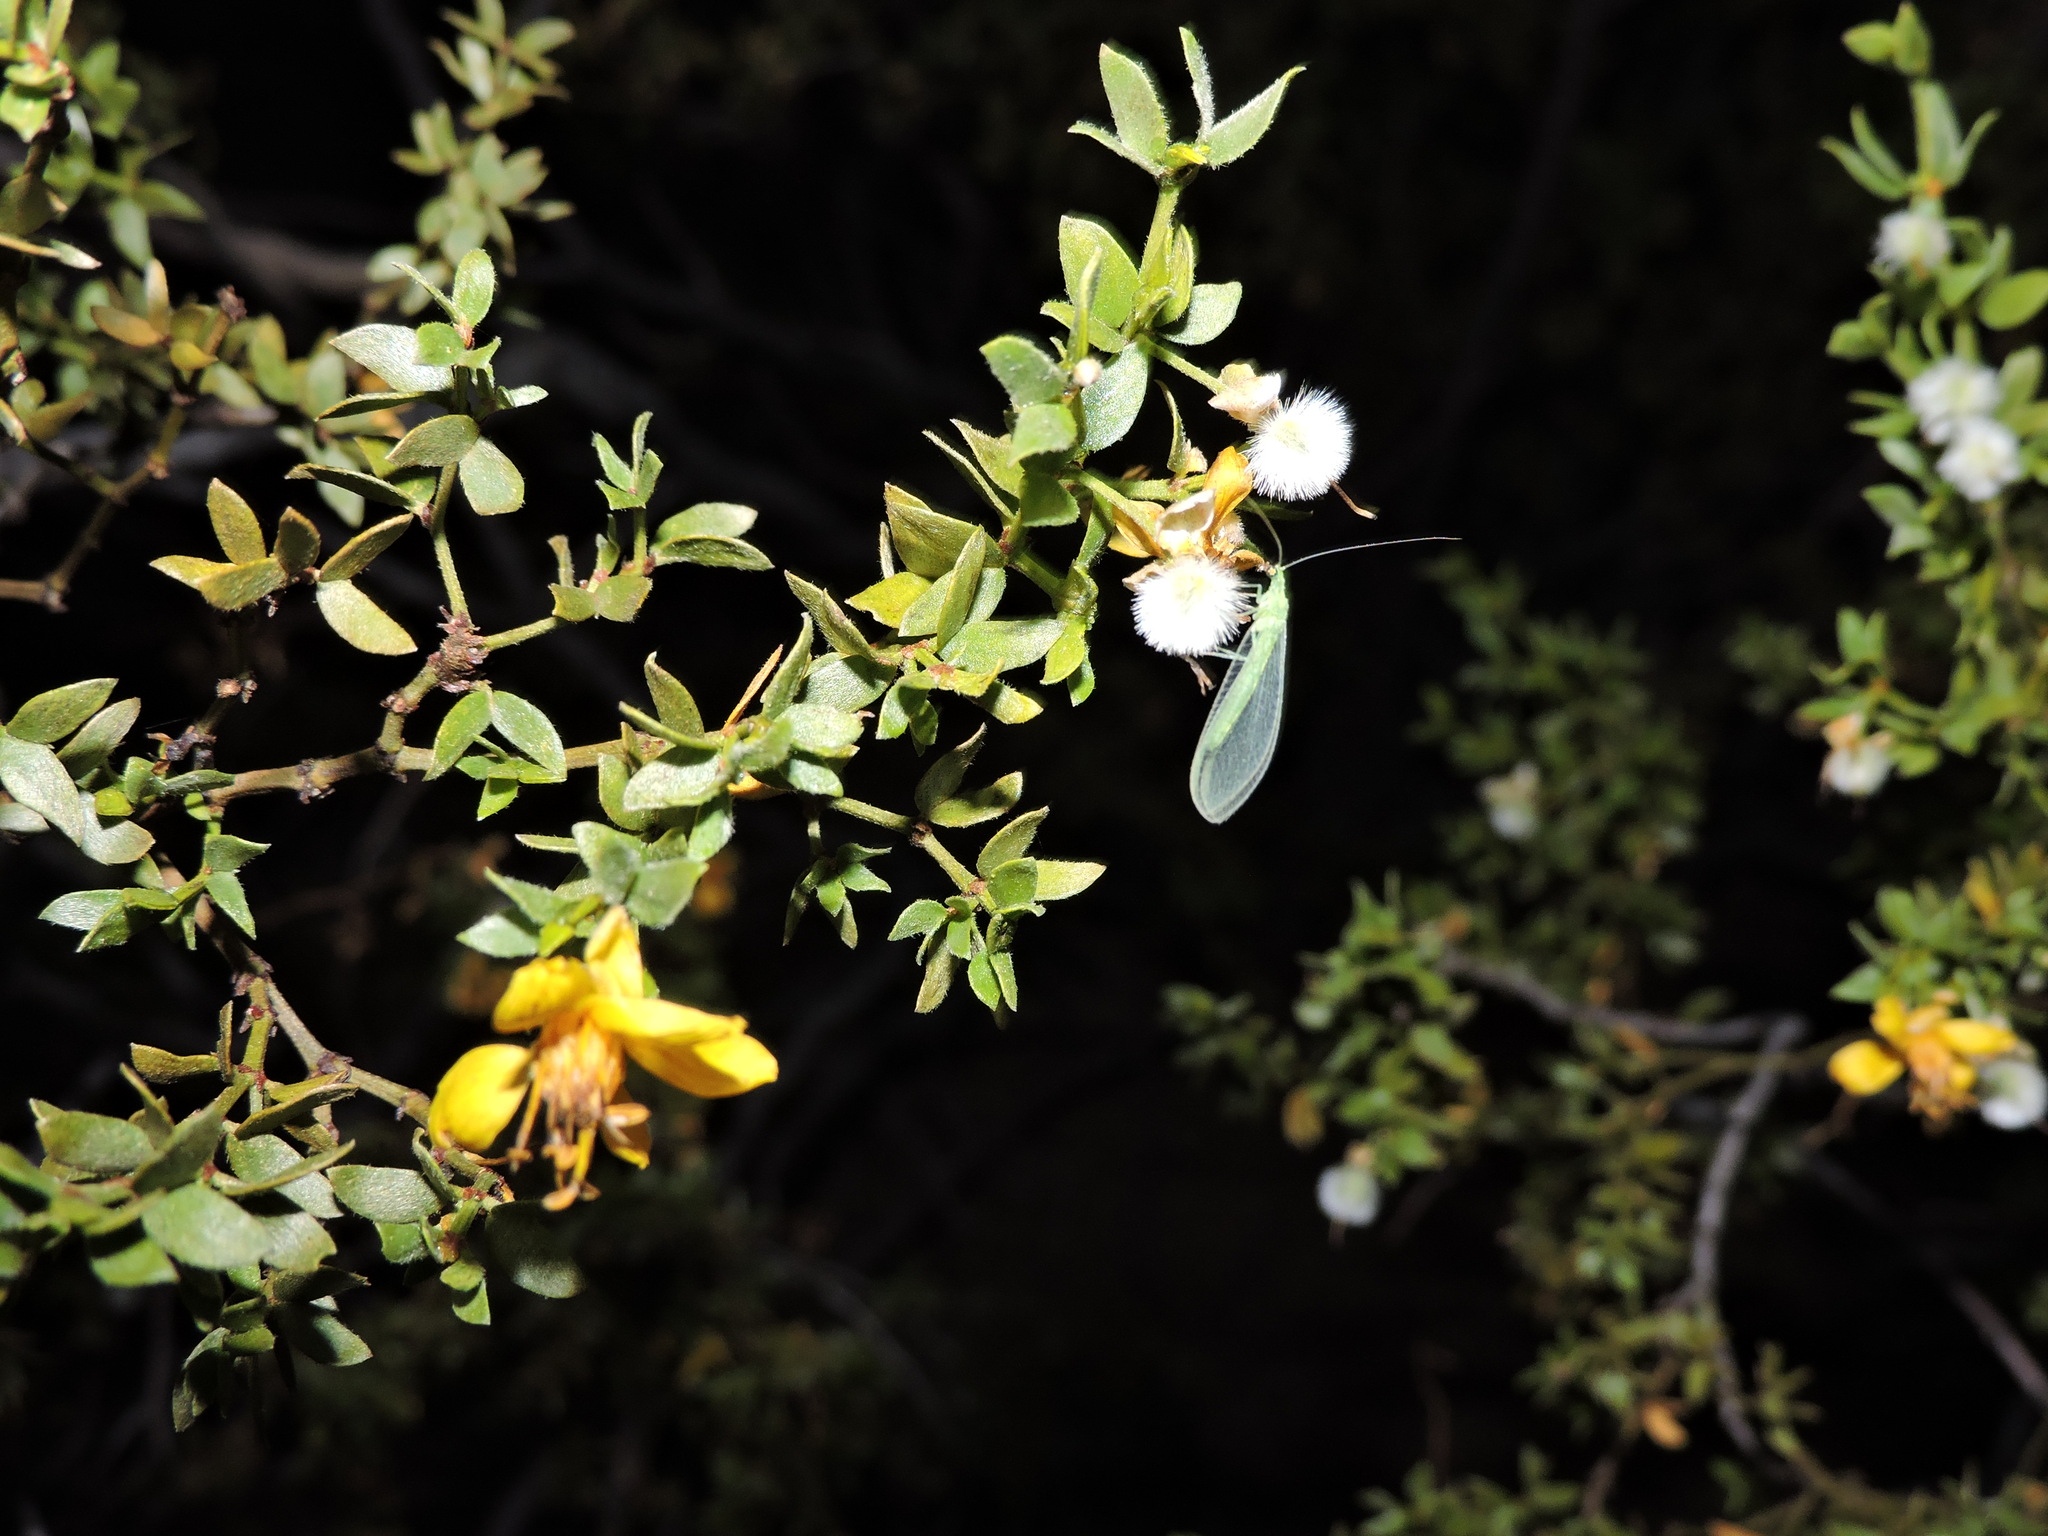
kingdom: Animalia
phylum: Arthropoda
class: Insecta
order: Neuroptera
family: Chrysopidae
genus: Chrysoperla
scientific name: Chrysoperla
